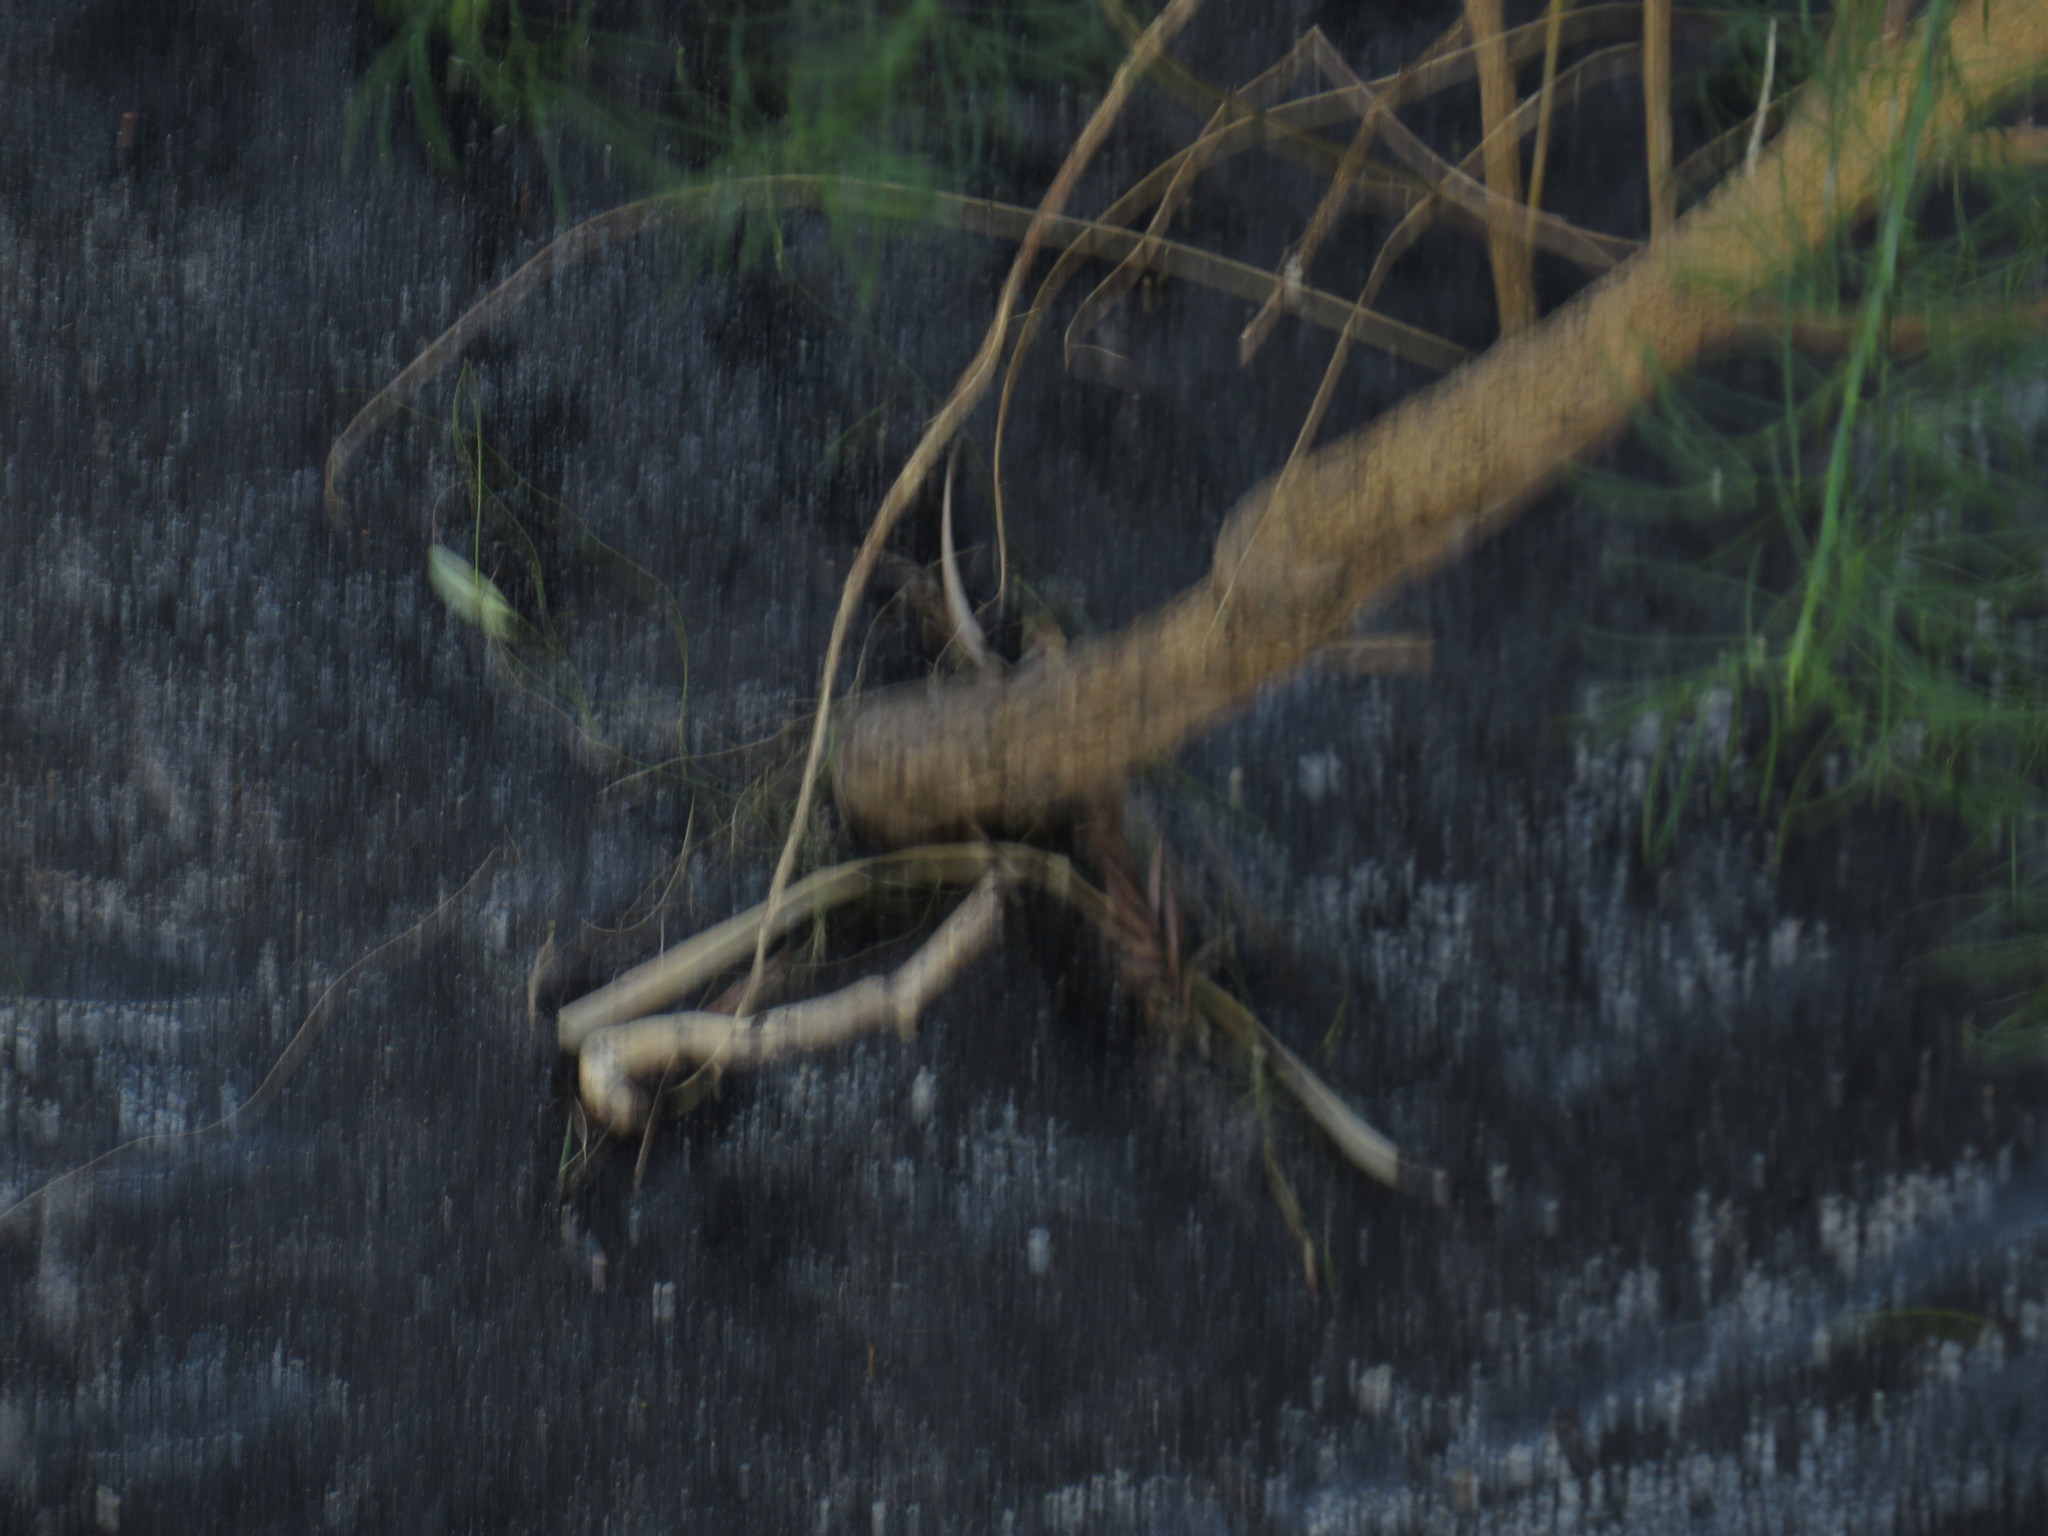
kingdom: Plantae
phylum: Tracheophyta
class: Magnoliopsida
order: Fabales
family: Fabaceae
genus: Psoralea
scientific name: Psoralea pinnata
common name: African scurfpea
